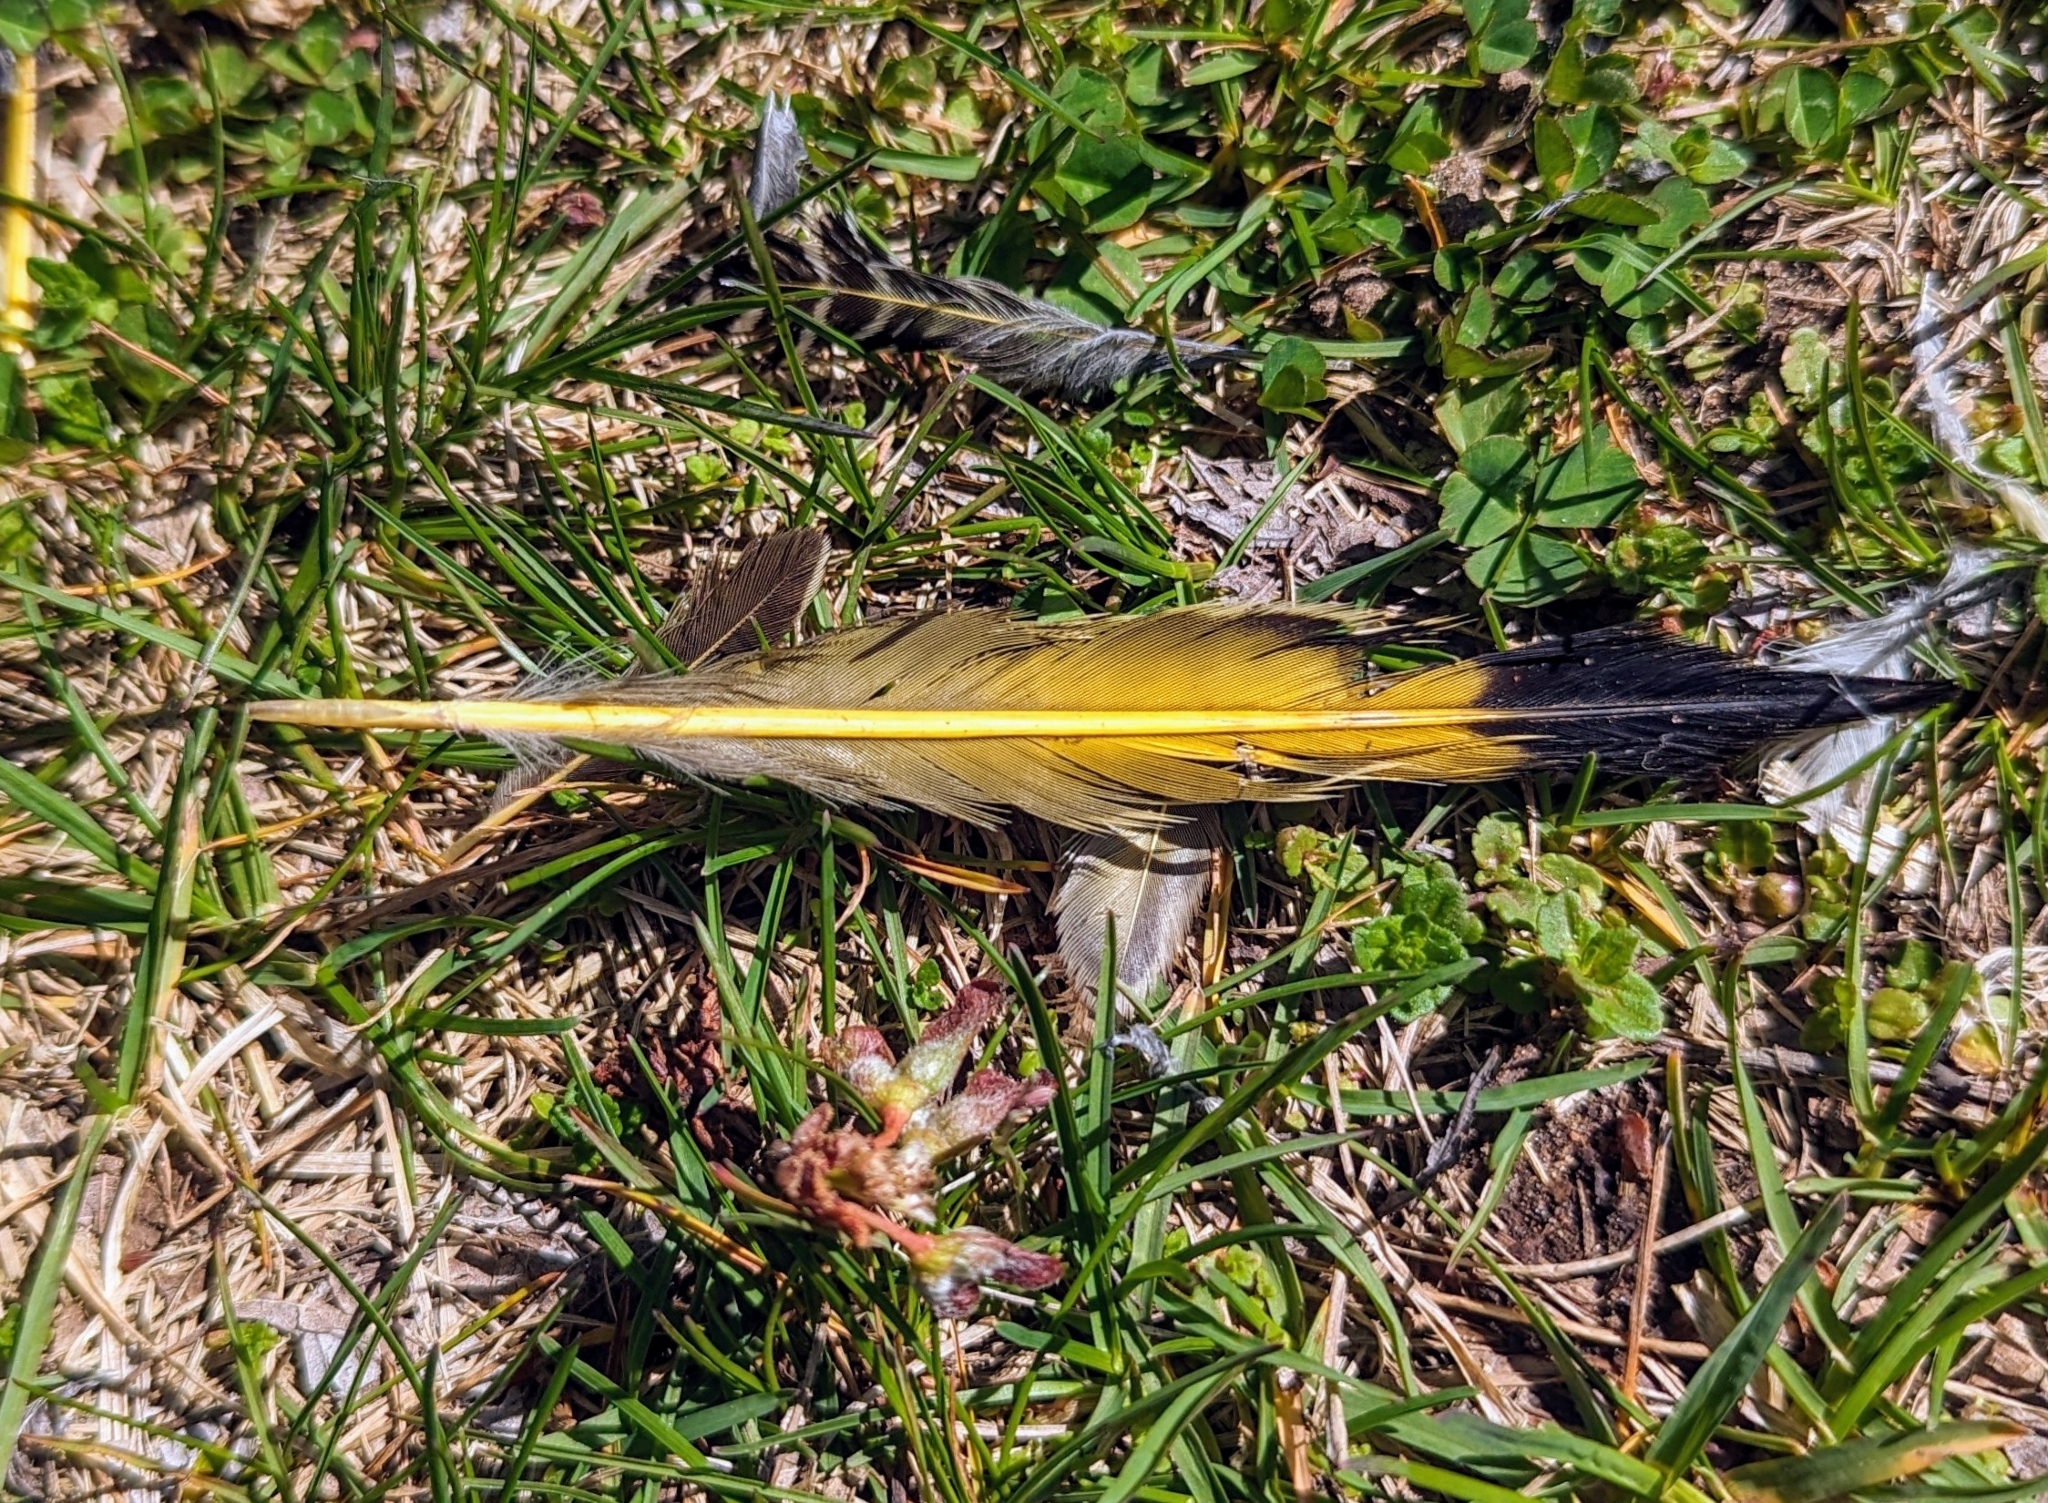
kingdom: Animalia
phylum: Chordata
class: Aves
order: Piciformes
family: Picidae
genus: Colaptes
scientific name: Colaptes auratus
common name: Northern flicker
